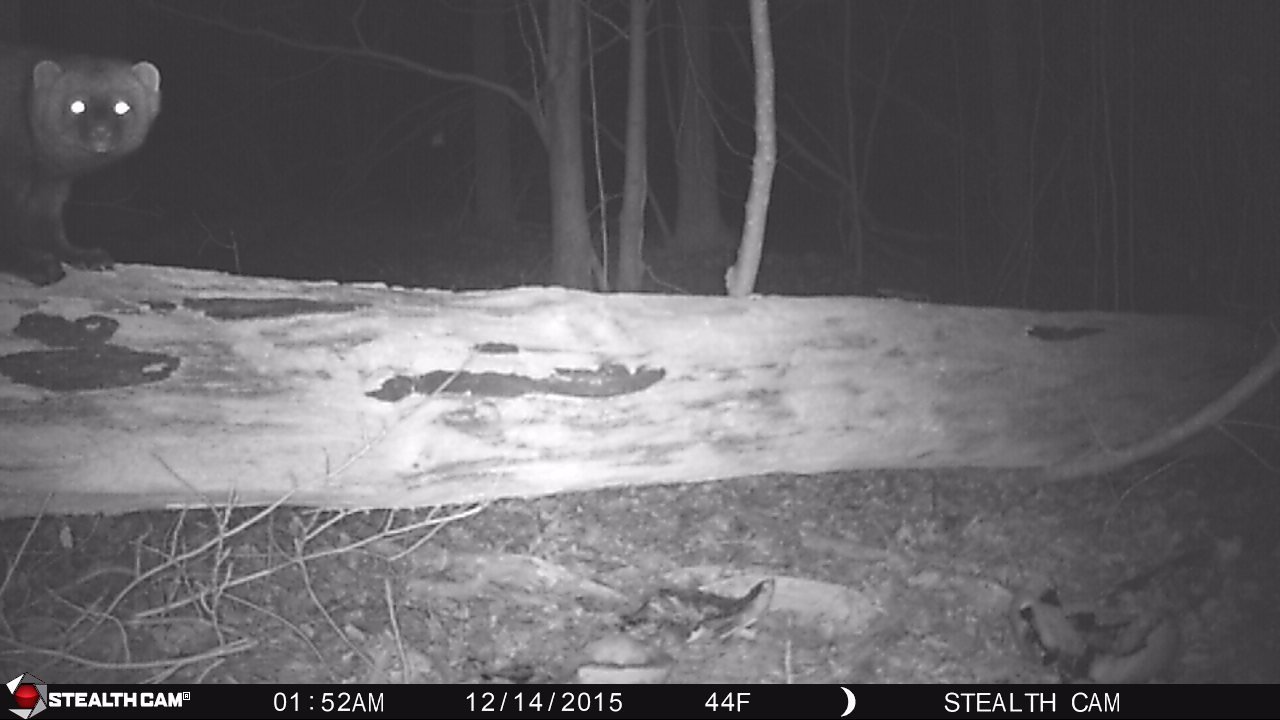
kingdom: Animalia
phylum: Chordata
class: Mammalia
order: Carnivora
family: Mustelidae
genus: Pekania
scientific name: Pekania pennanti
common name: Fisher
